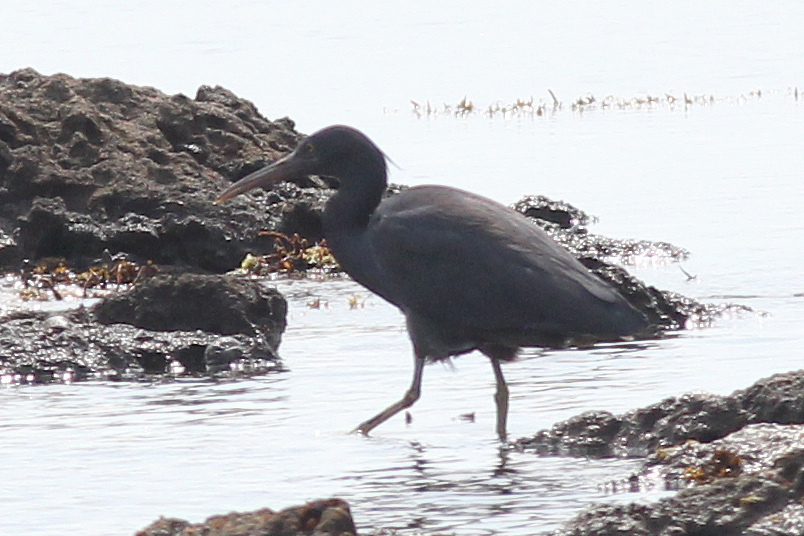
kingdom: Animalia
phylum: Chordata
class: Aves
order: Pelecaniformes
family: Ardeidae
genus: Egretta
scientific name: Egretta sacra
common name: Pacific reef heron
